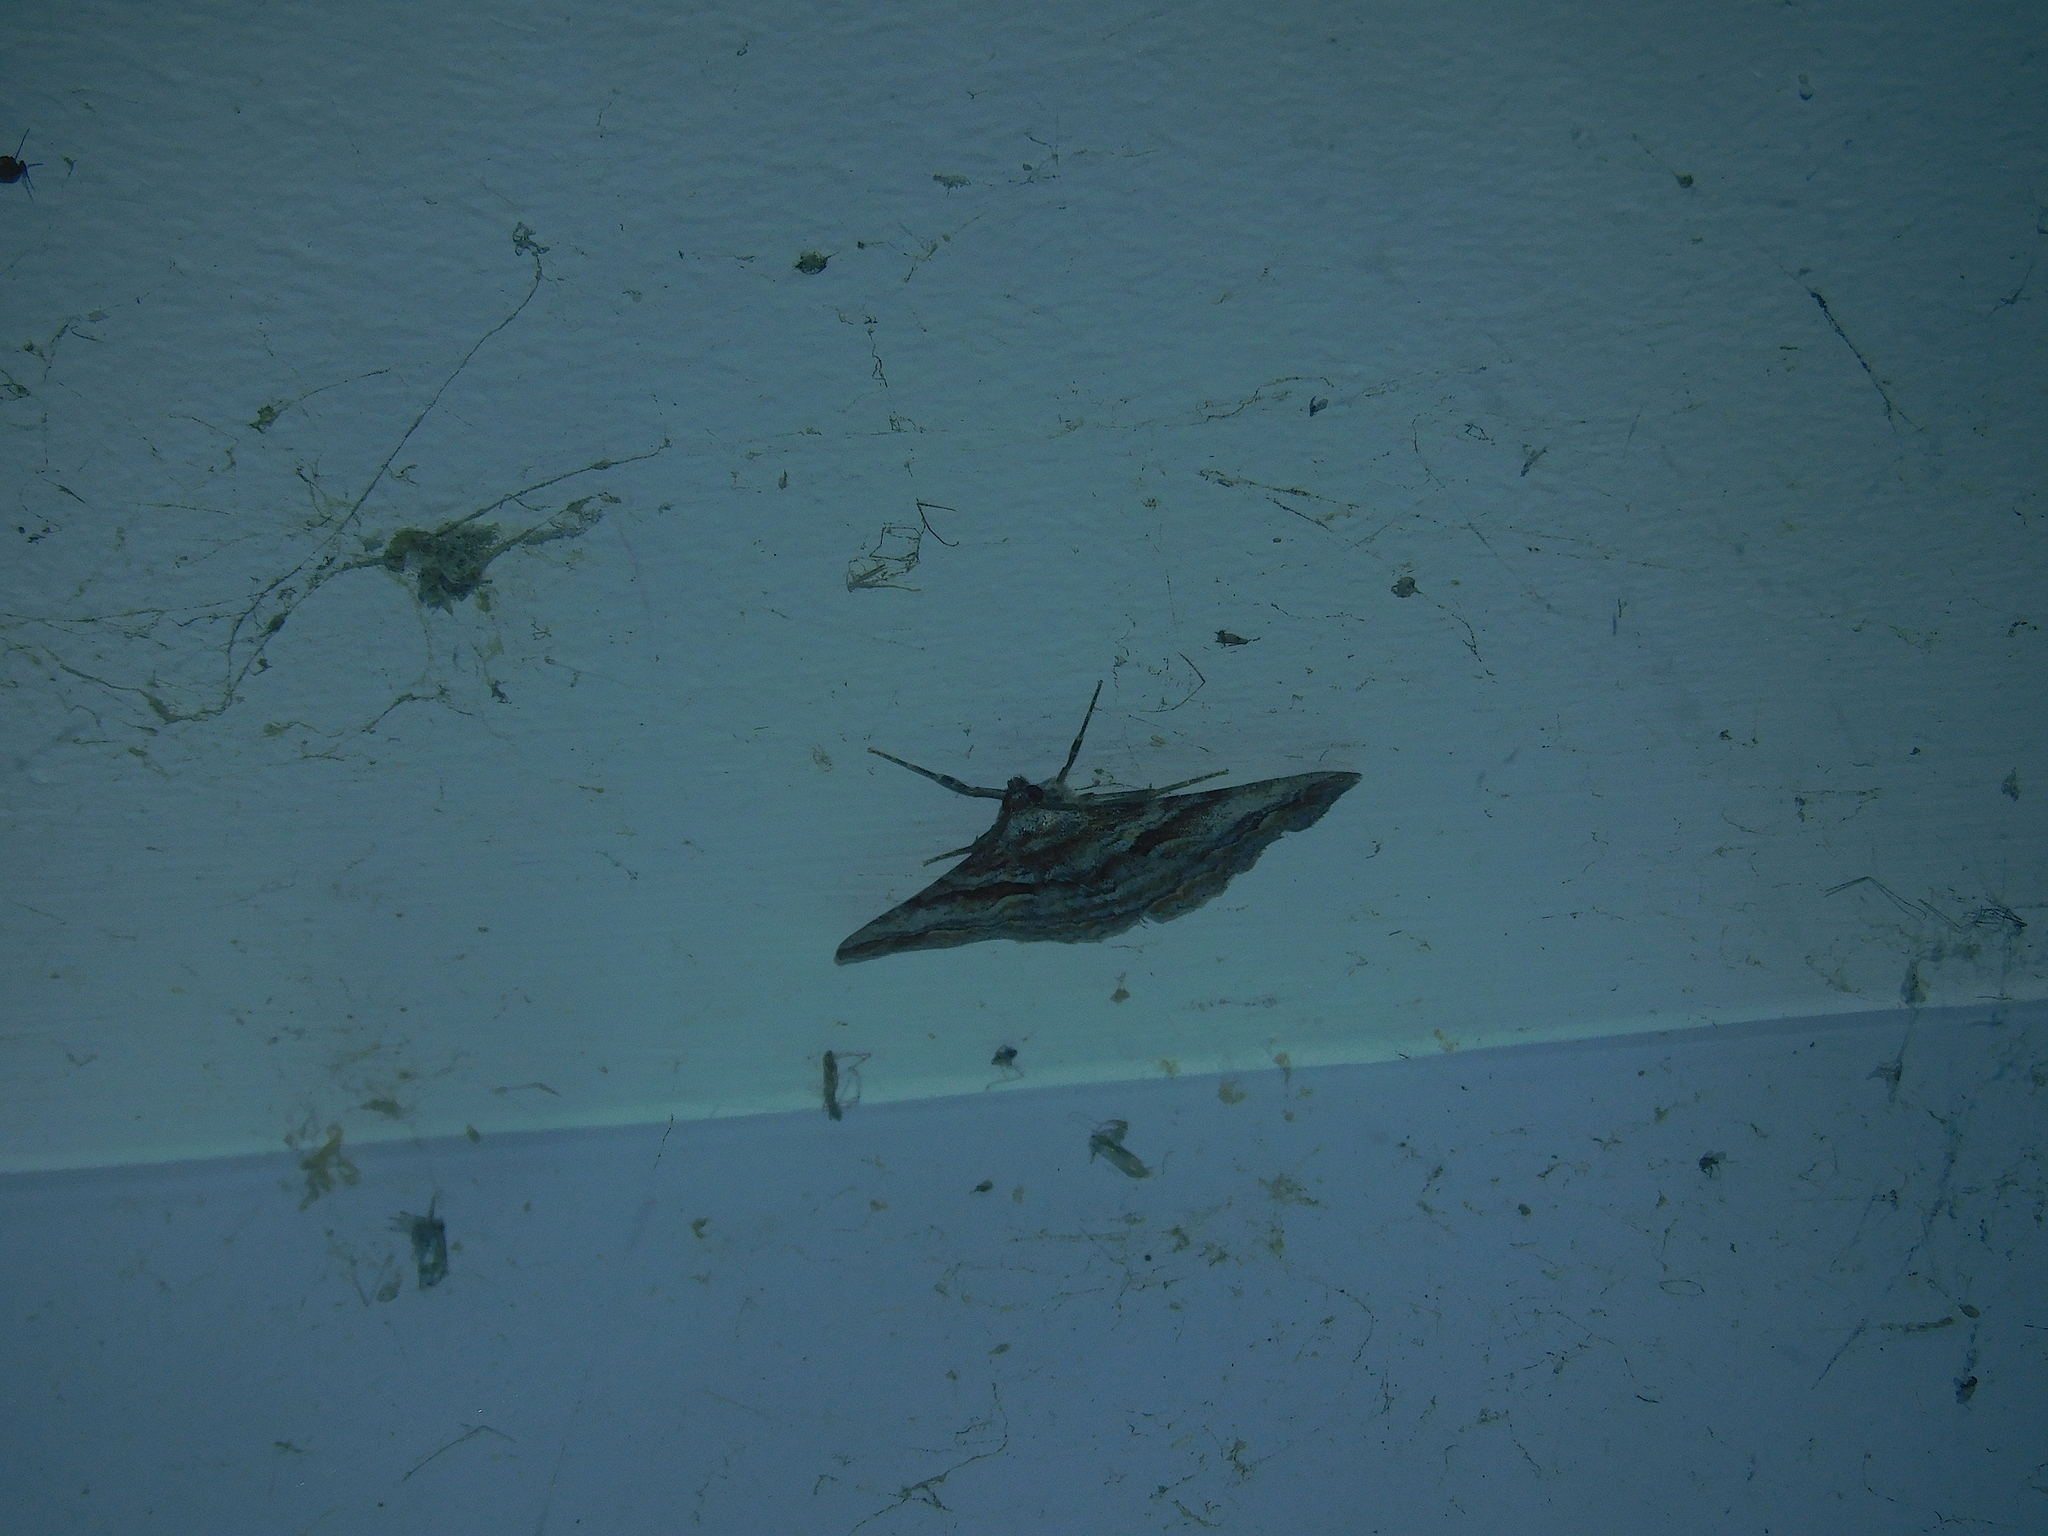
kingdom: Animalia
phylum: Arthropoda
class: Insecta
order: Lepidoptera
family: Geometridae
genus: Gastrinodes
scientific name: Gastrinodes bitaeniaria
